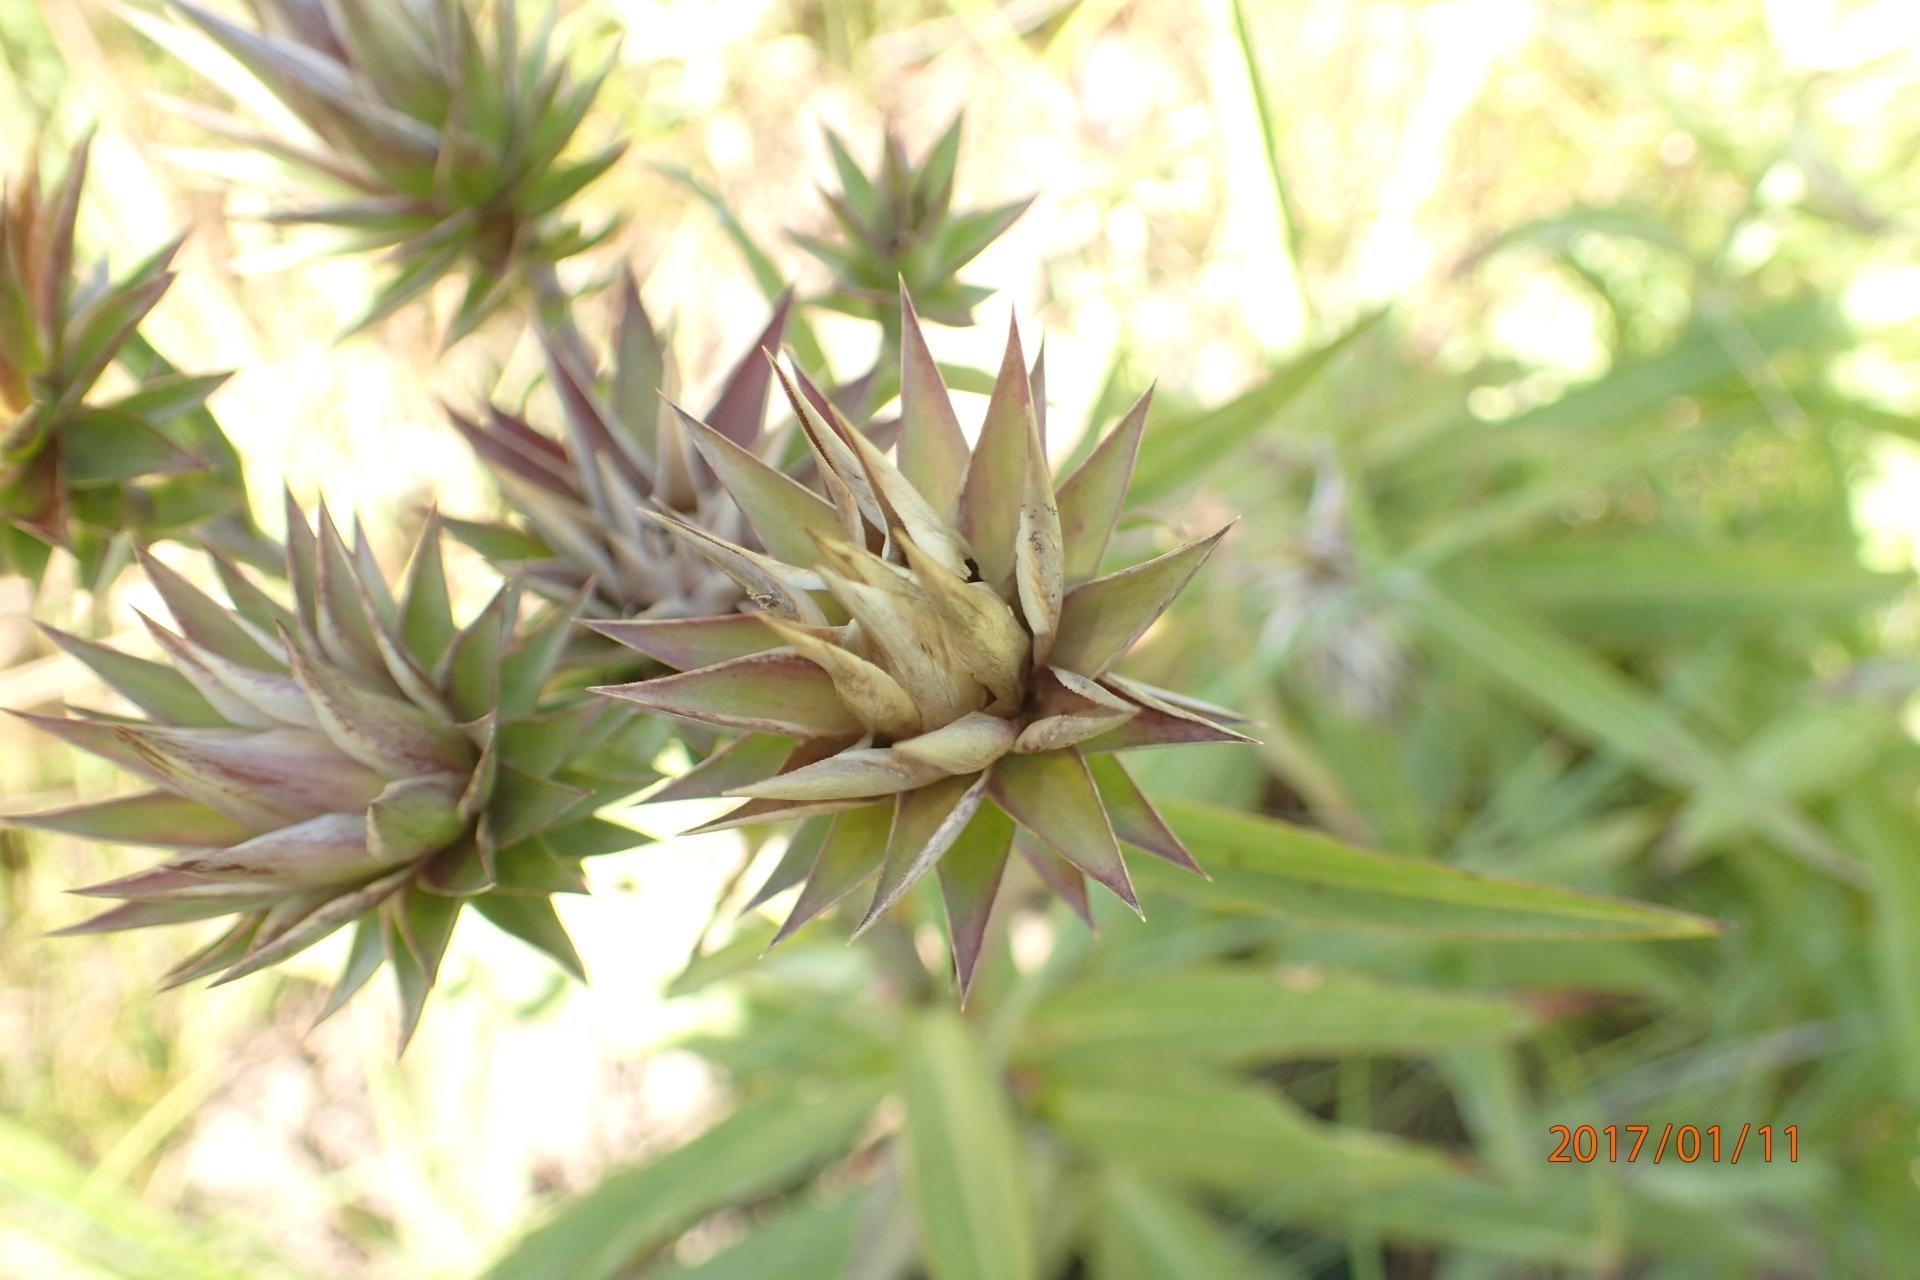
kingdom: Plantae
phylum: Tracheophyta
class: Magnoliopsida
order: Asterales
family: Asteraceae
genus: Macledium
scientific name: Macledium speciosum
